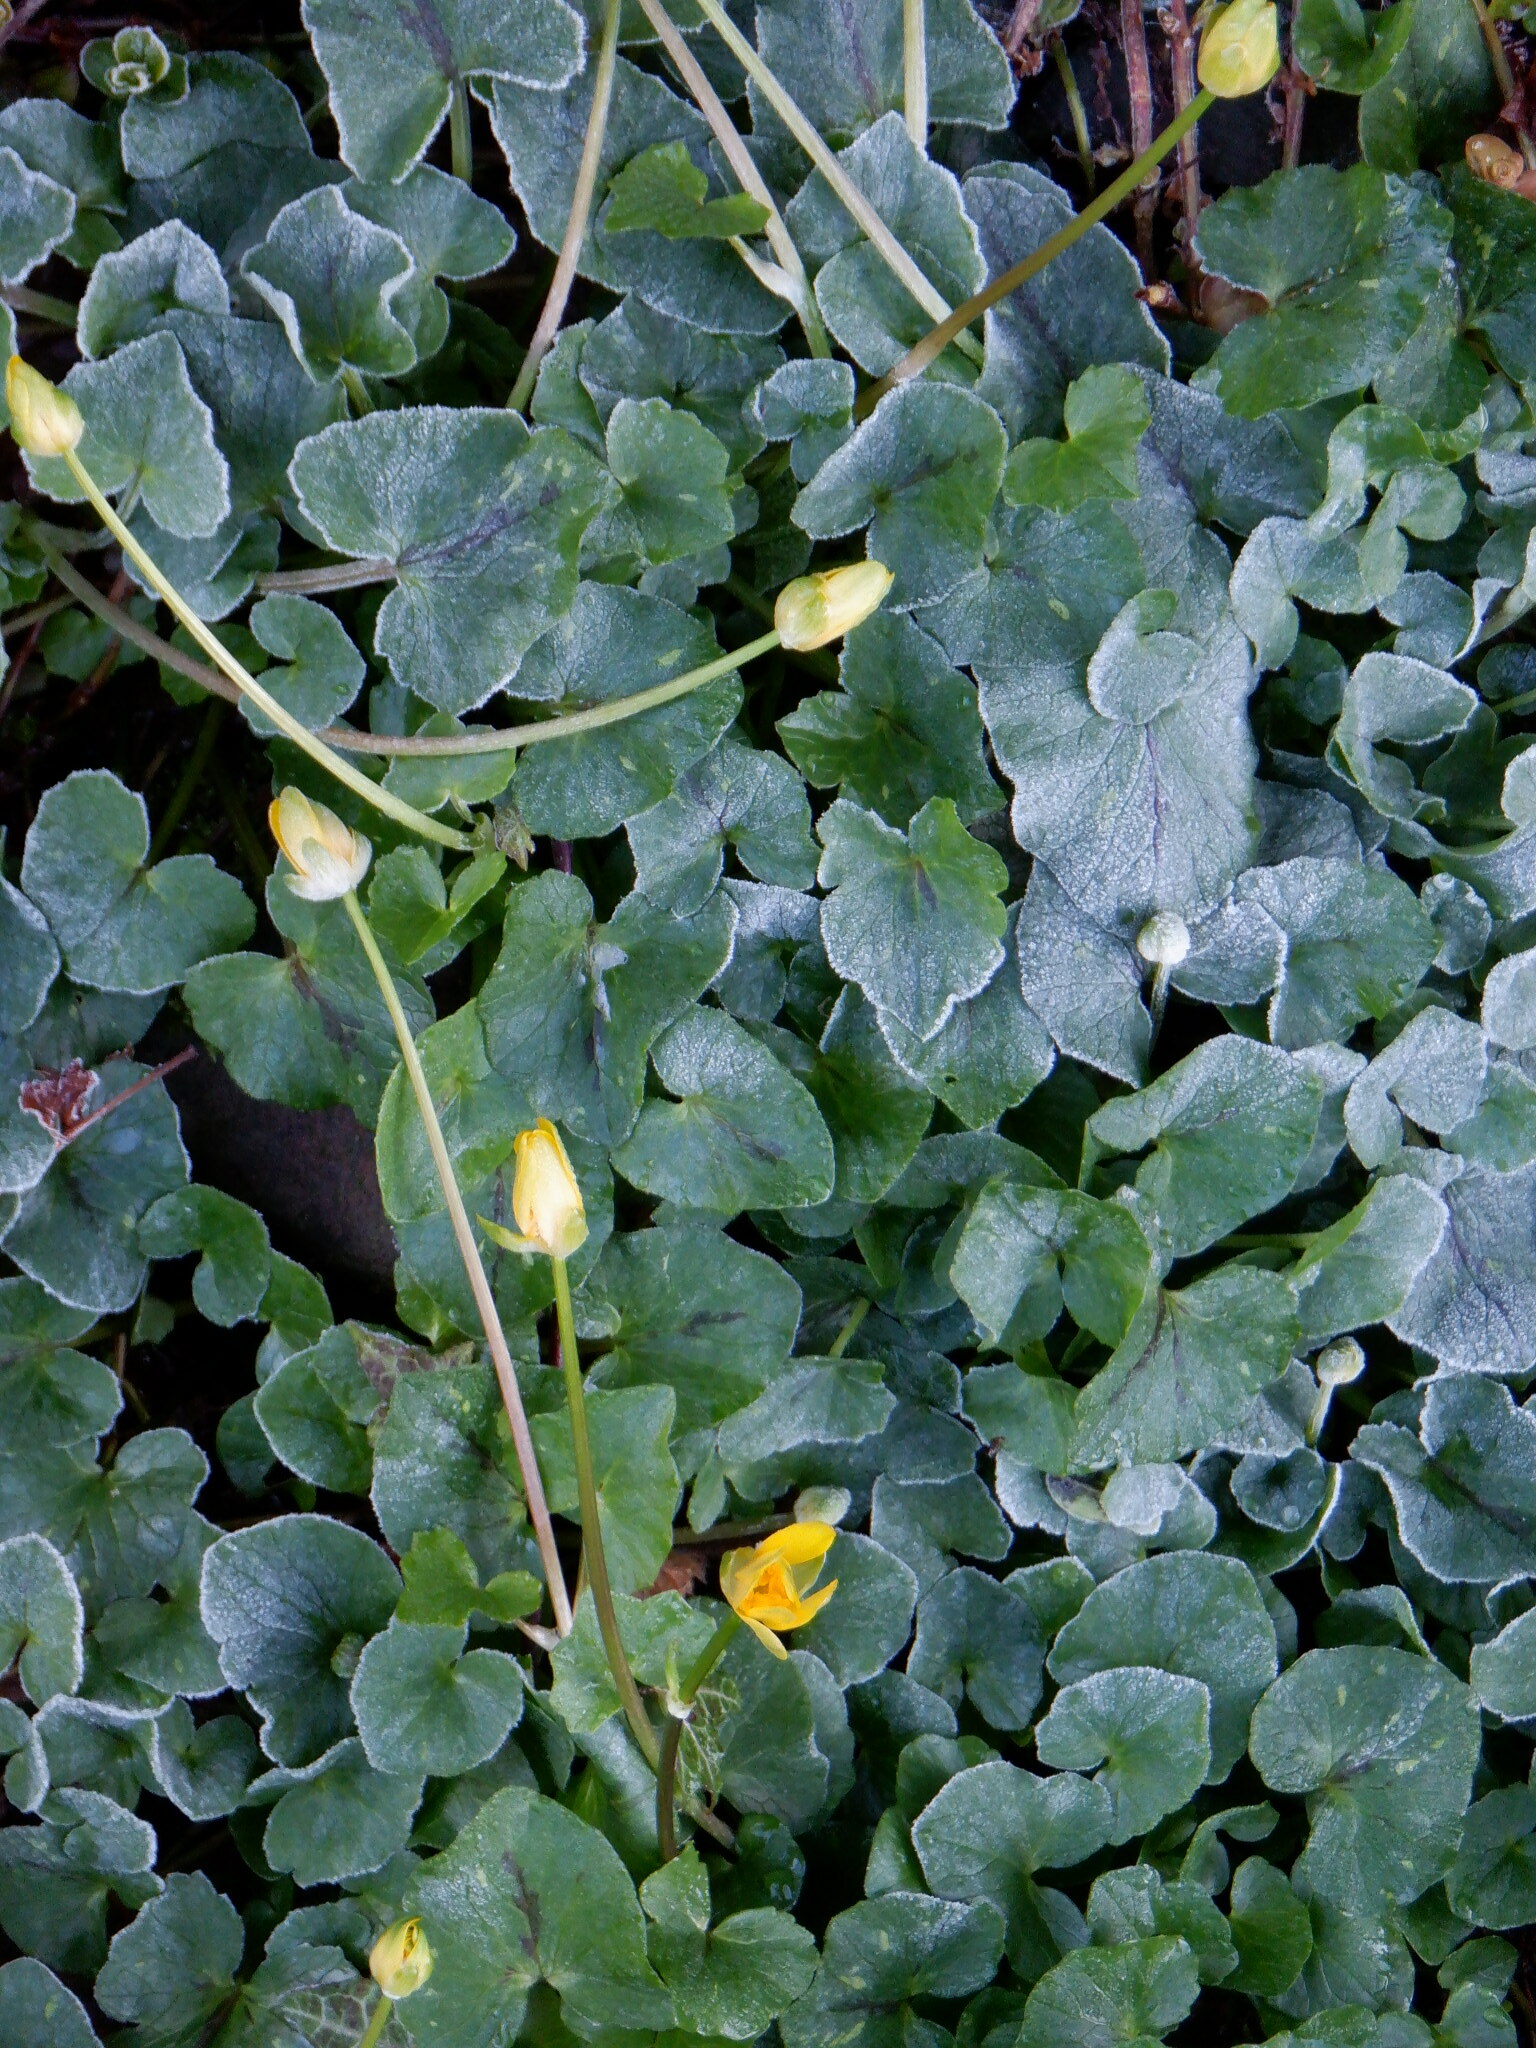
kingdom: Plantae
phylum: Tracheophyta
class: Magnoliopsida
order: Ranunculales
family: Ranunculaceae
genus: Ficaria
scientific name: Ficaria verna
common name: Lesser celandine
